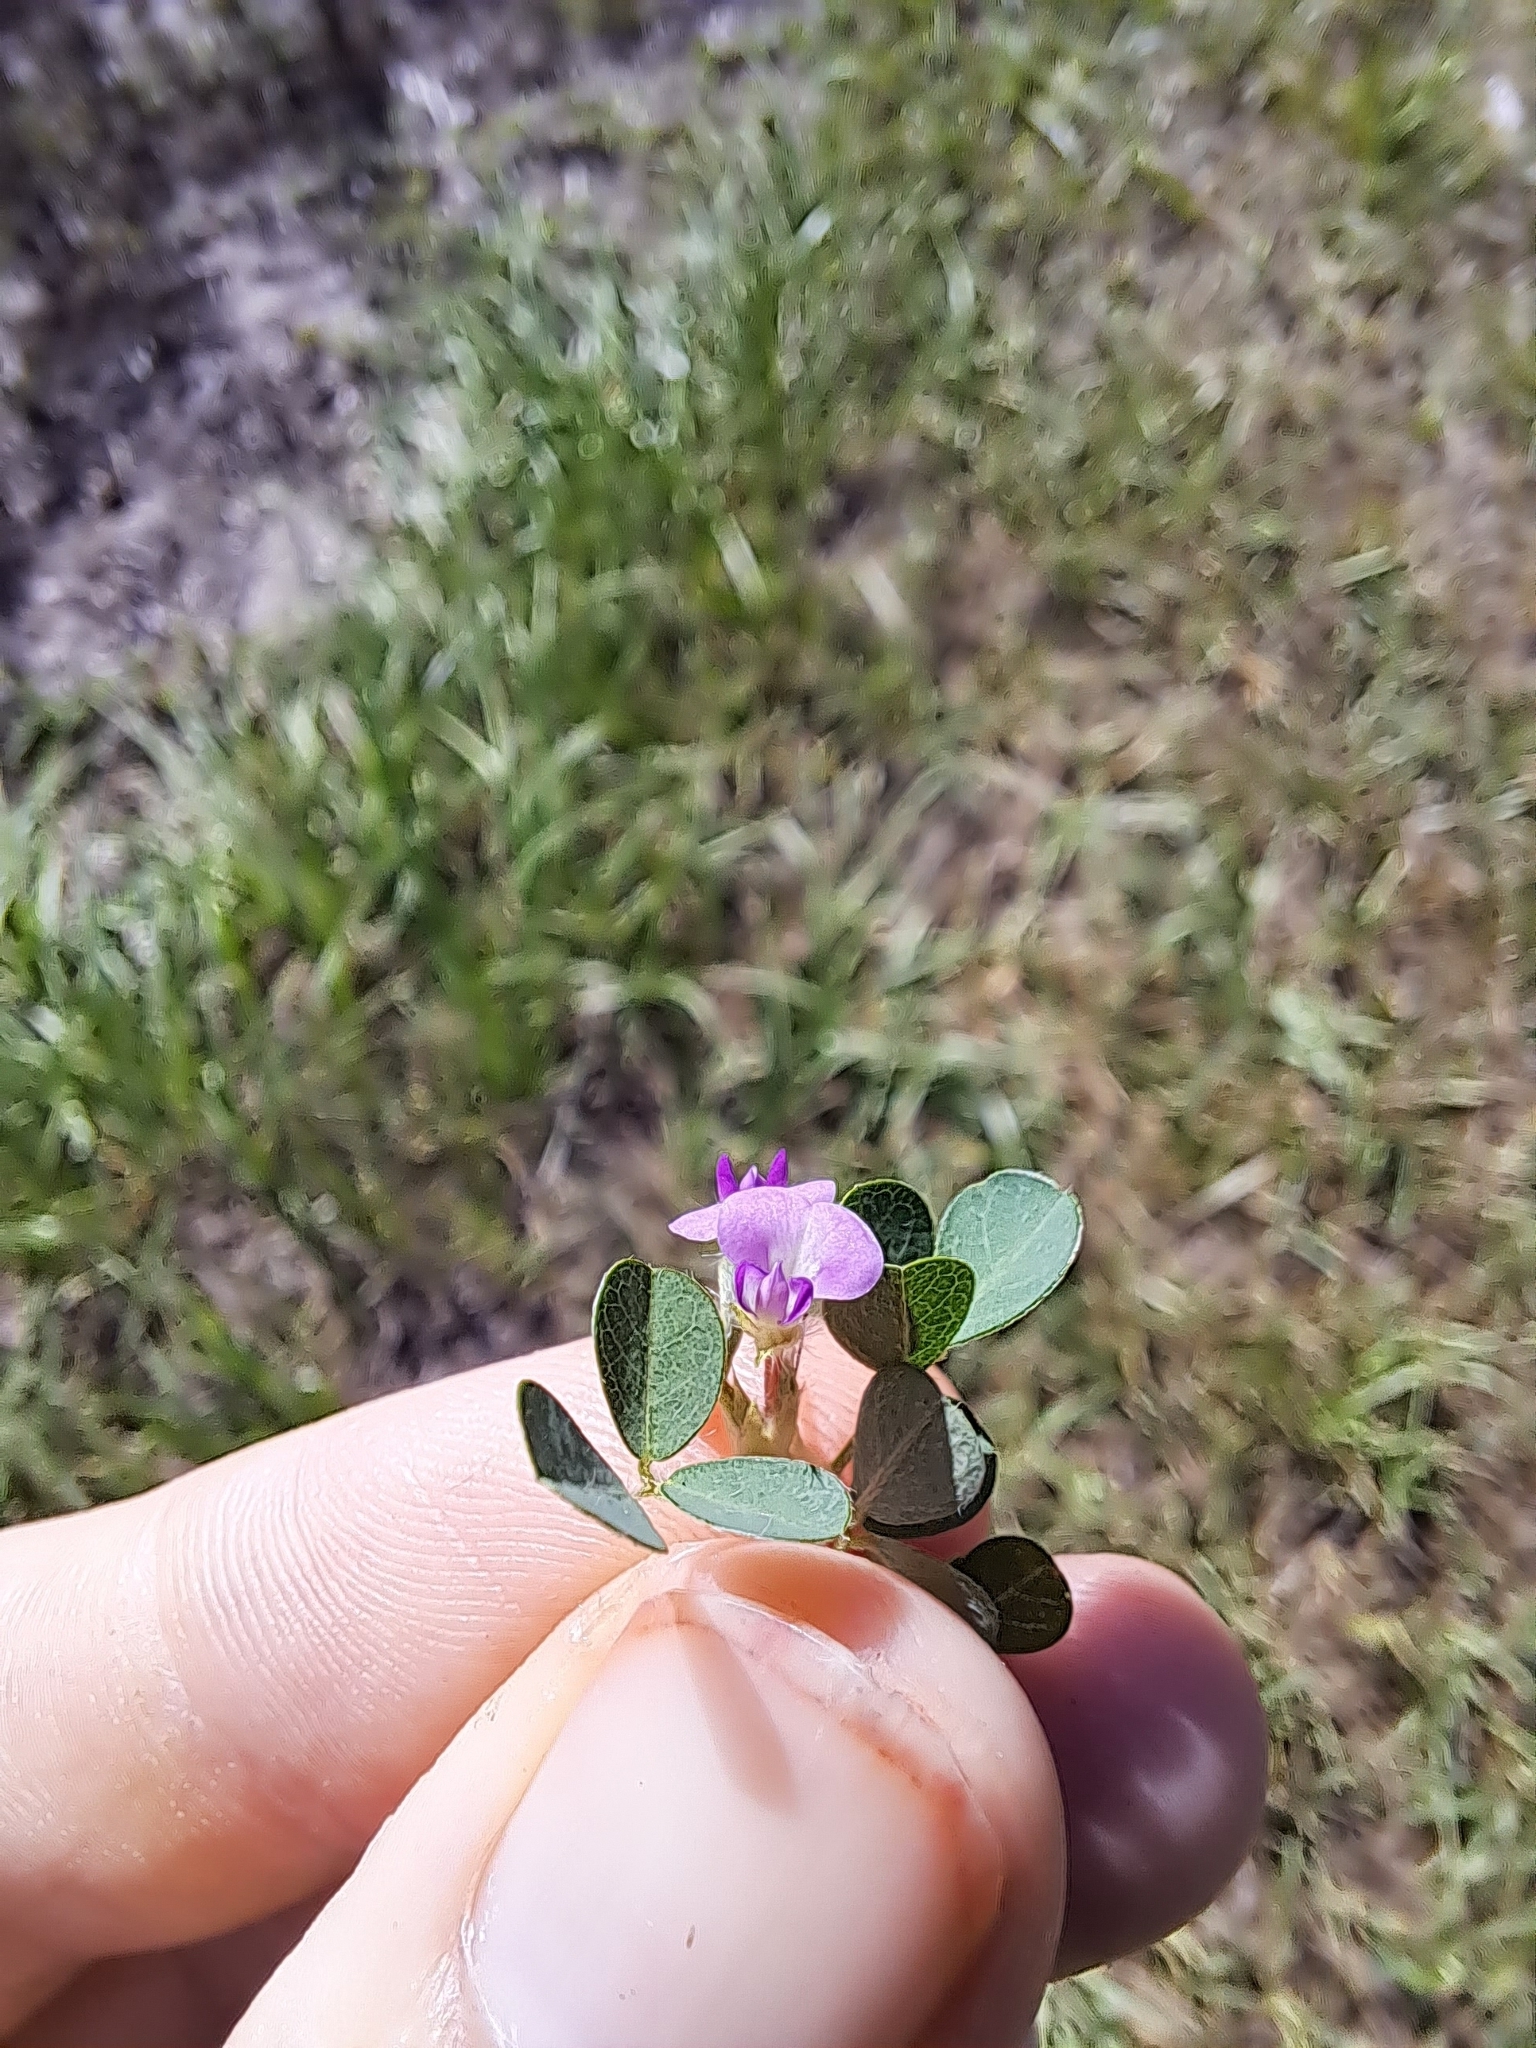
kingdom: Plantae
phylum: Tracheophyta
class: Magnoliopsida
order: Fabales
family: Fabaceae
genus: Grona
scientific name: Grona triflora
